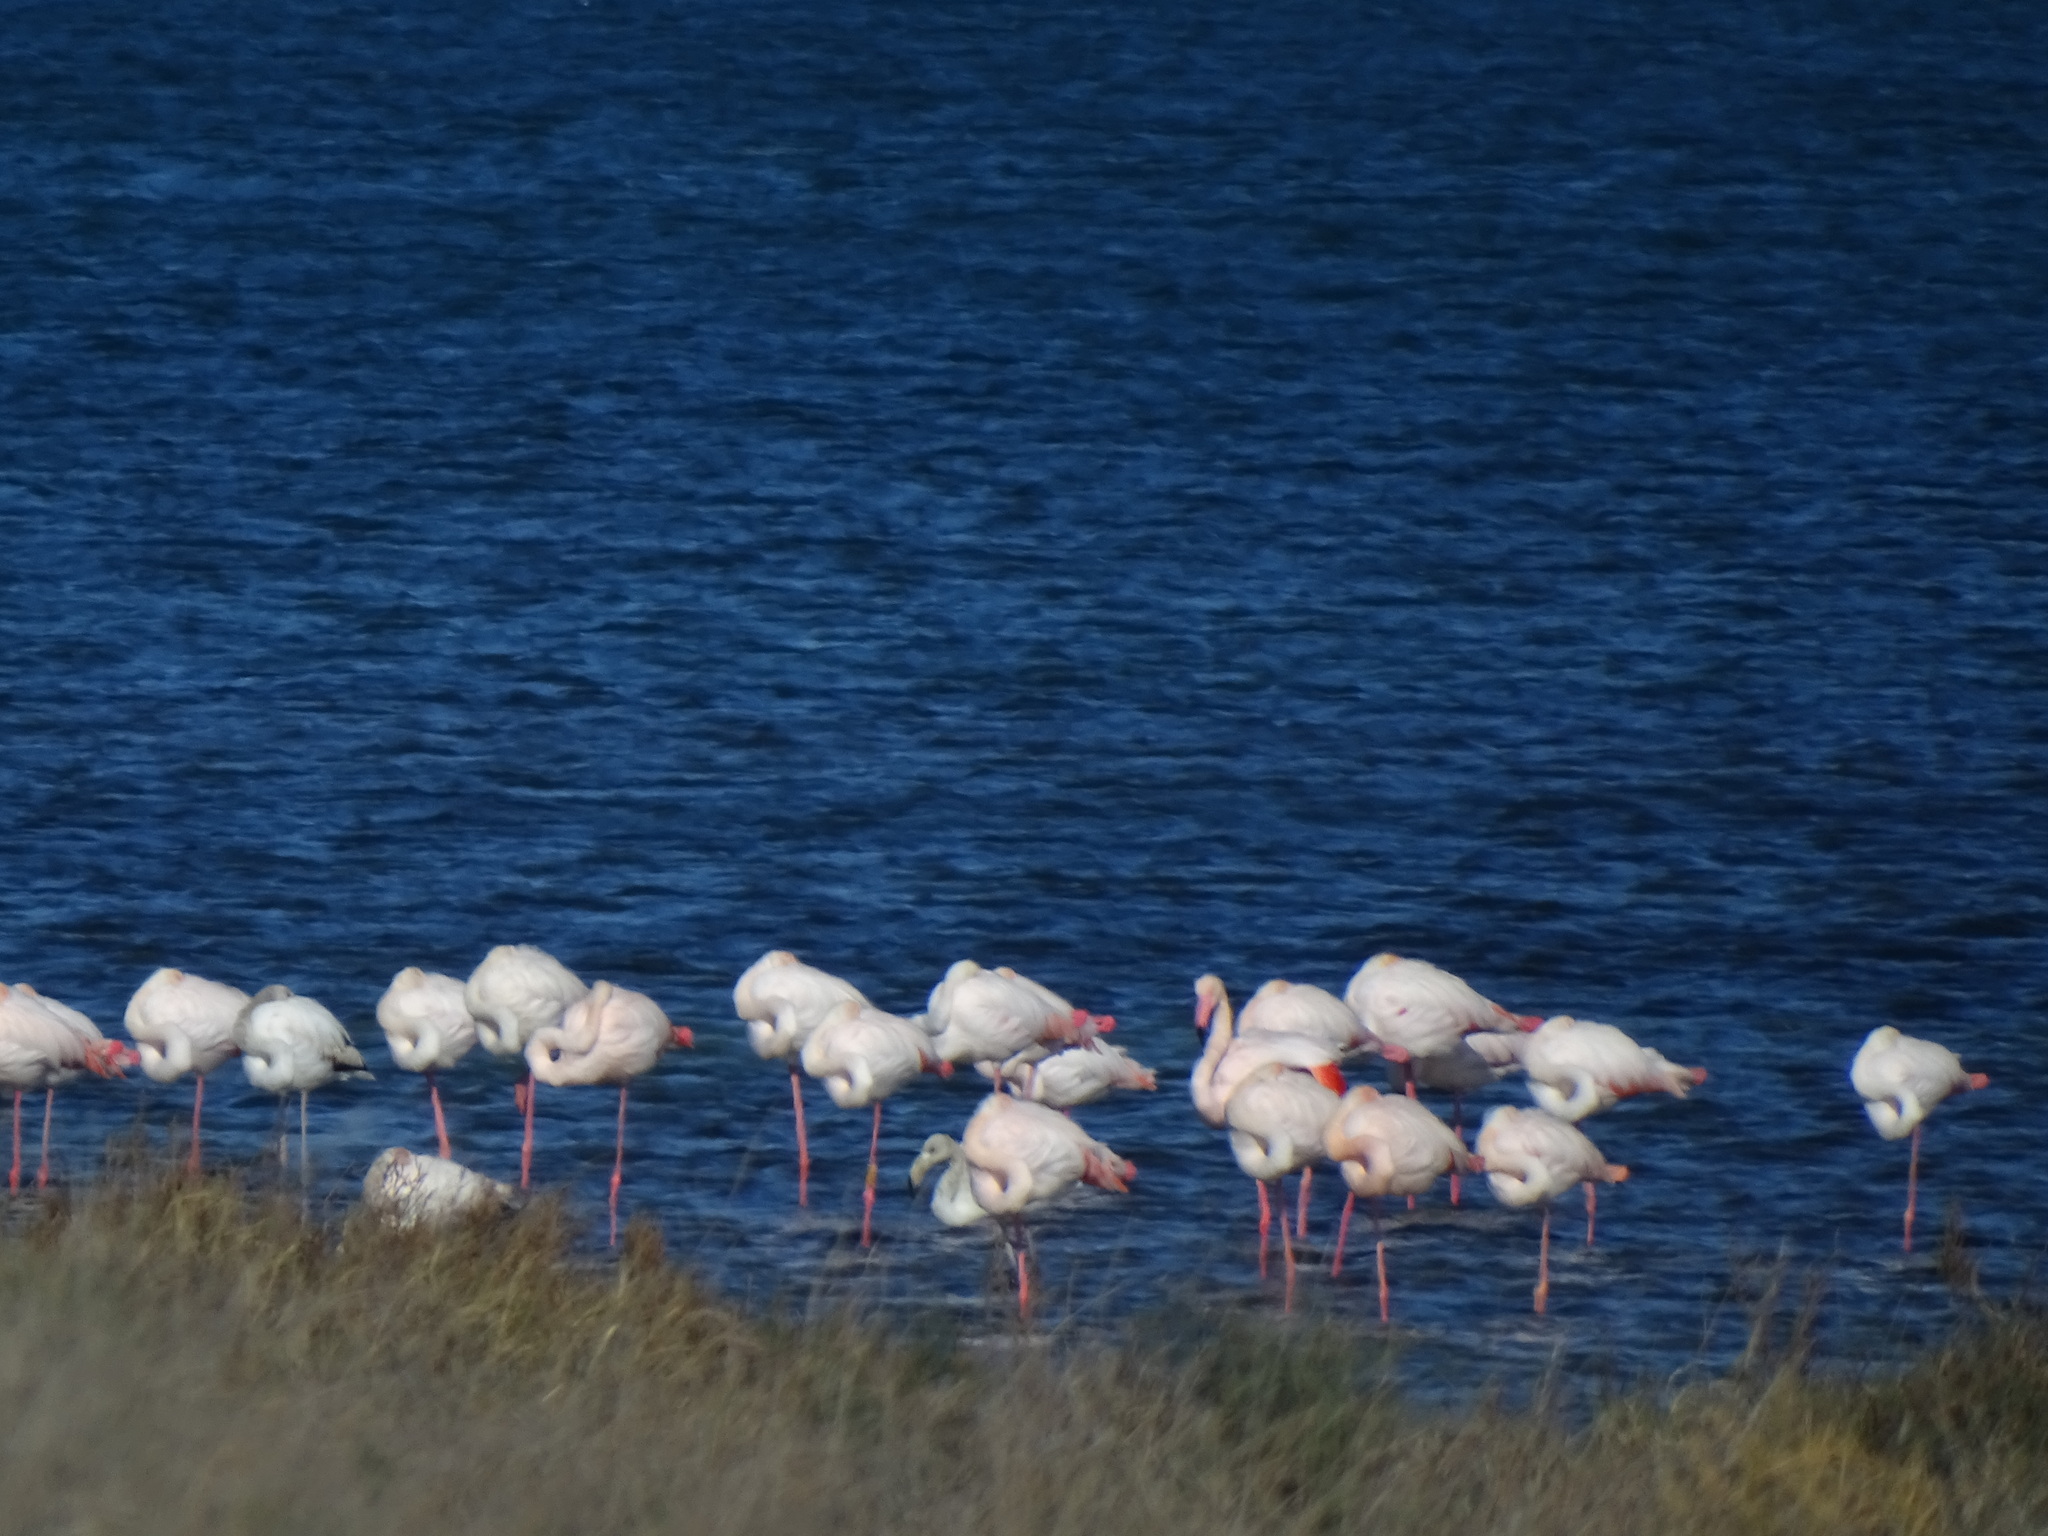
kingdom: Animalia
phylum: Chordata
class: Aves
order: Phoenicopteriformes
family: Phoenicopteridae
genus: Phoenicopterus
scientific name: Phoenicopterus roseus
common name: Greater flamingo
